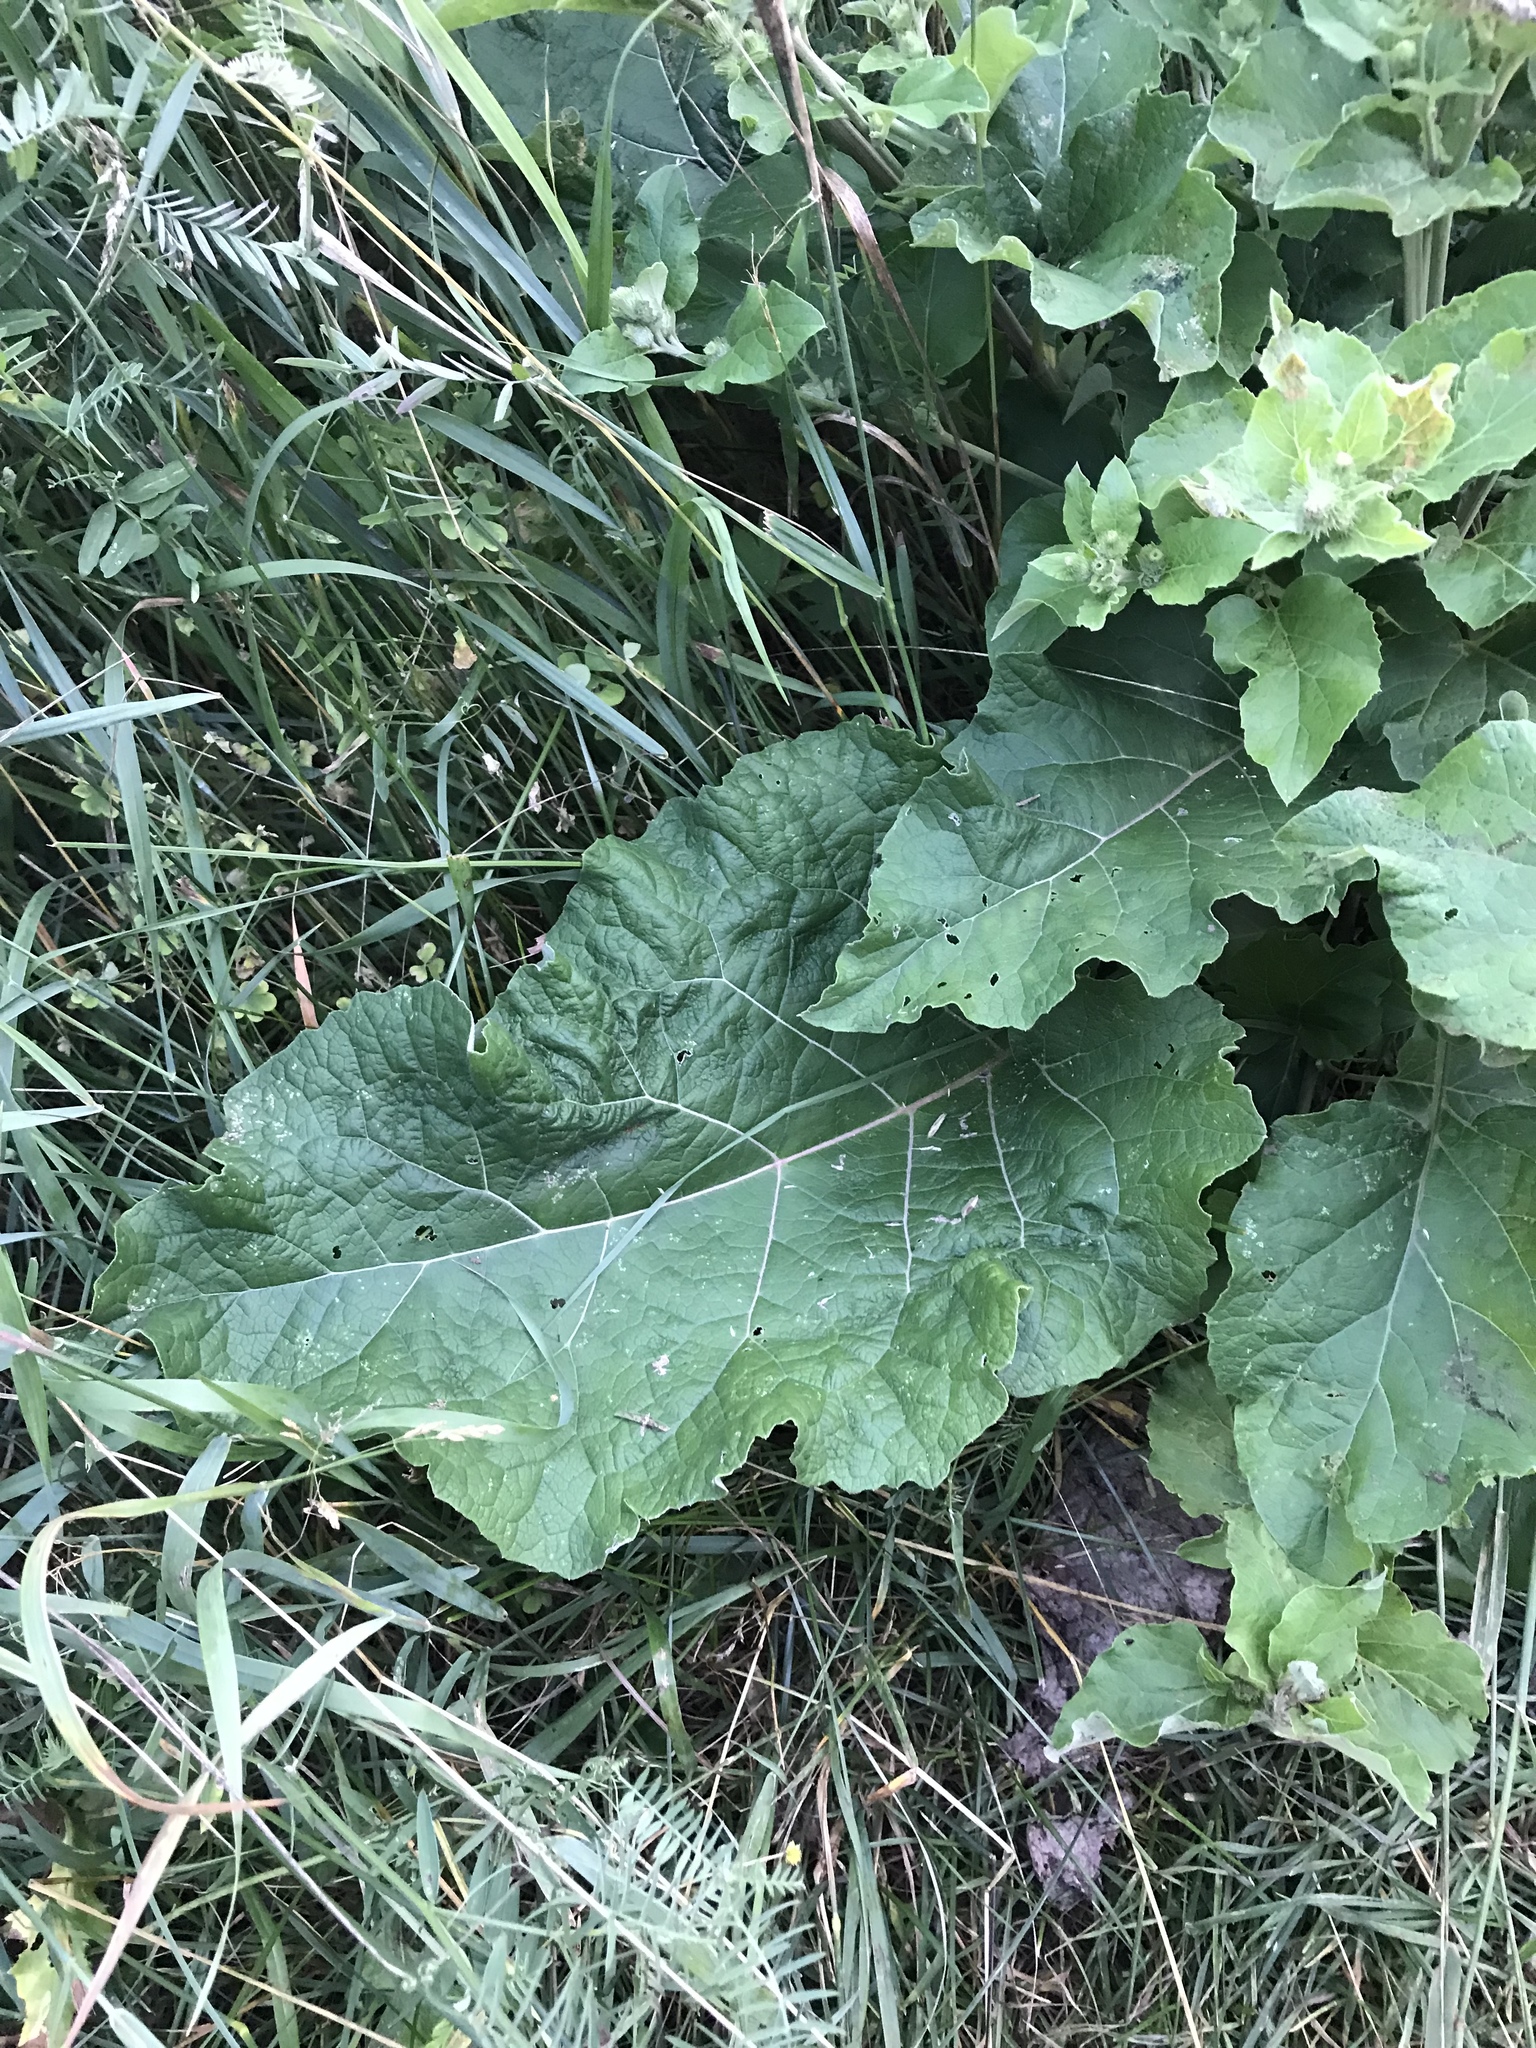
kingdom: Plantae
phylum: Tracheophyta
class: Magnoliopsida
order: Asterales
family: Asteraceae
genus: Arctium
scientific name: Arctium minus
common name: Lesser burdock
